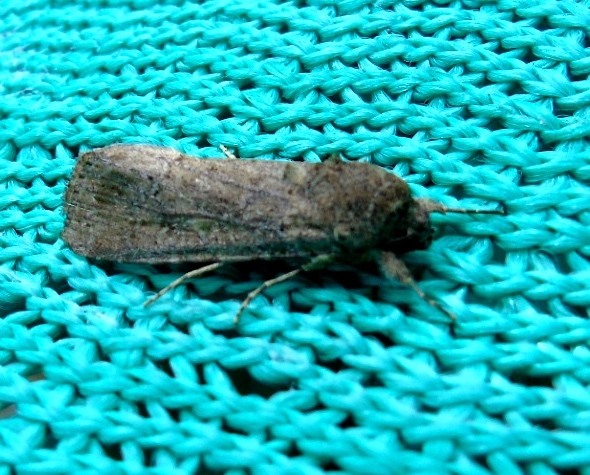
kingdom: Animalia
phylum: Arthropoda
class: Insecta
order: Lepidoptera
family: Noctuidae
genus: Spodoptera
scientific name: Spodoptera
